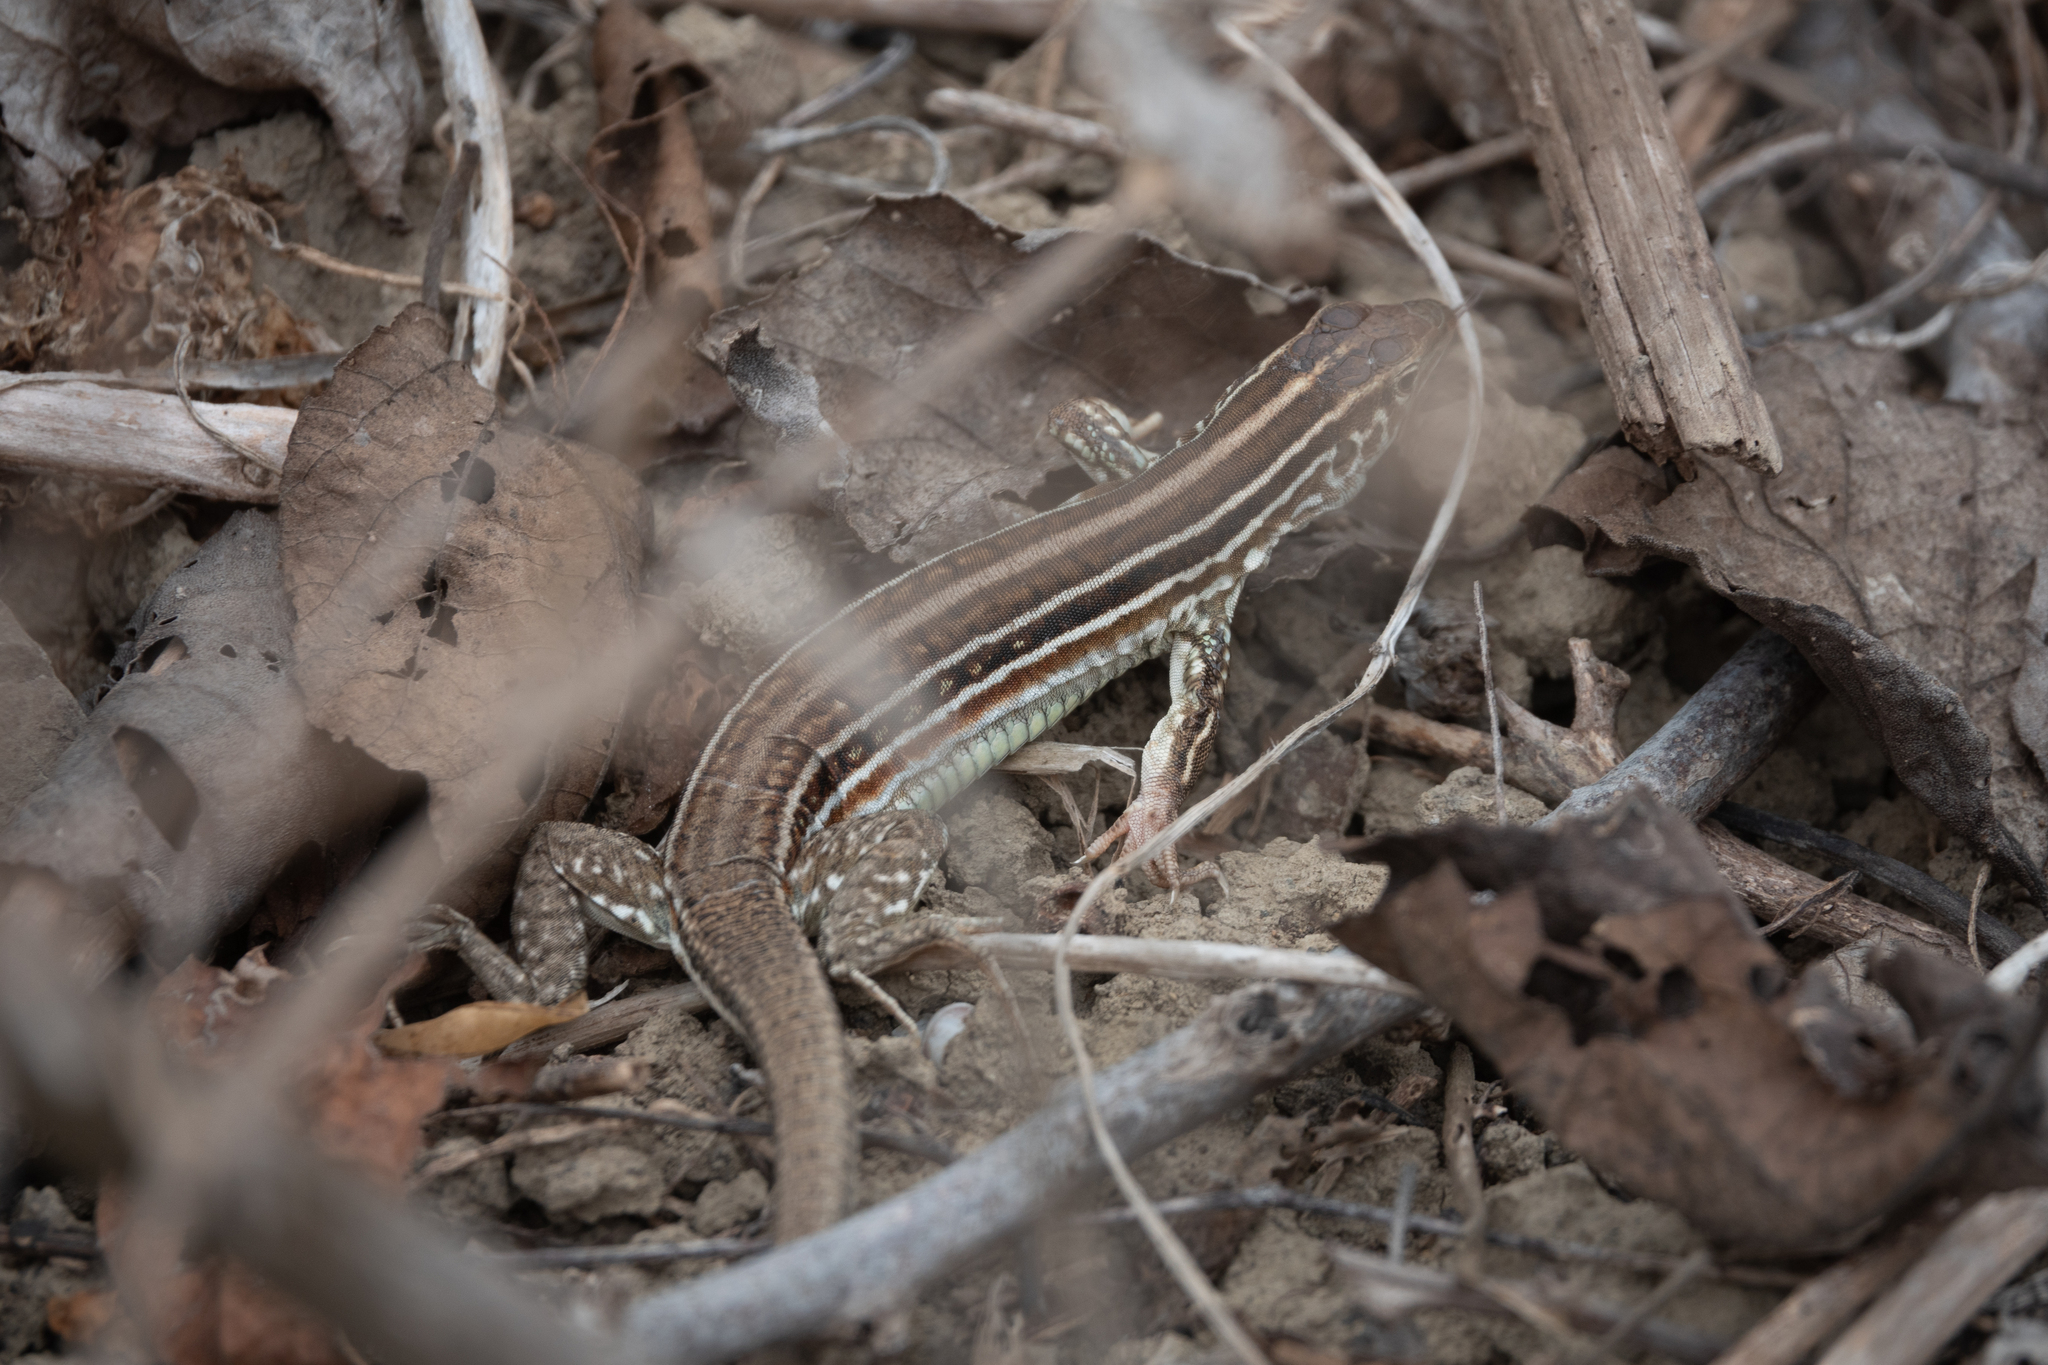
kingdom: Animalia
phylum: Chordata
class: Squamata
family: Teiidae
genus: Medopheos
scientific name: Medopheos edracanthus
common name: Bocourt's ameiva
